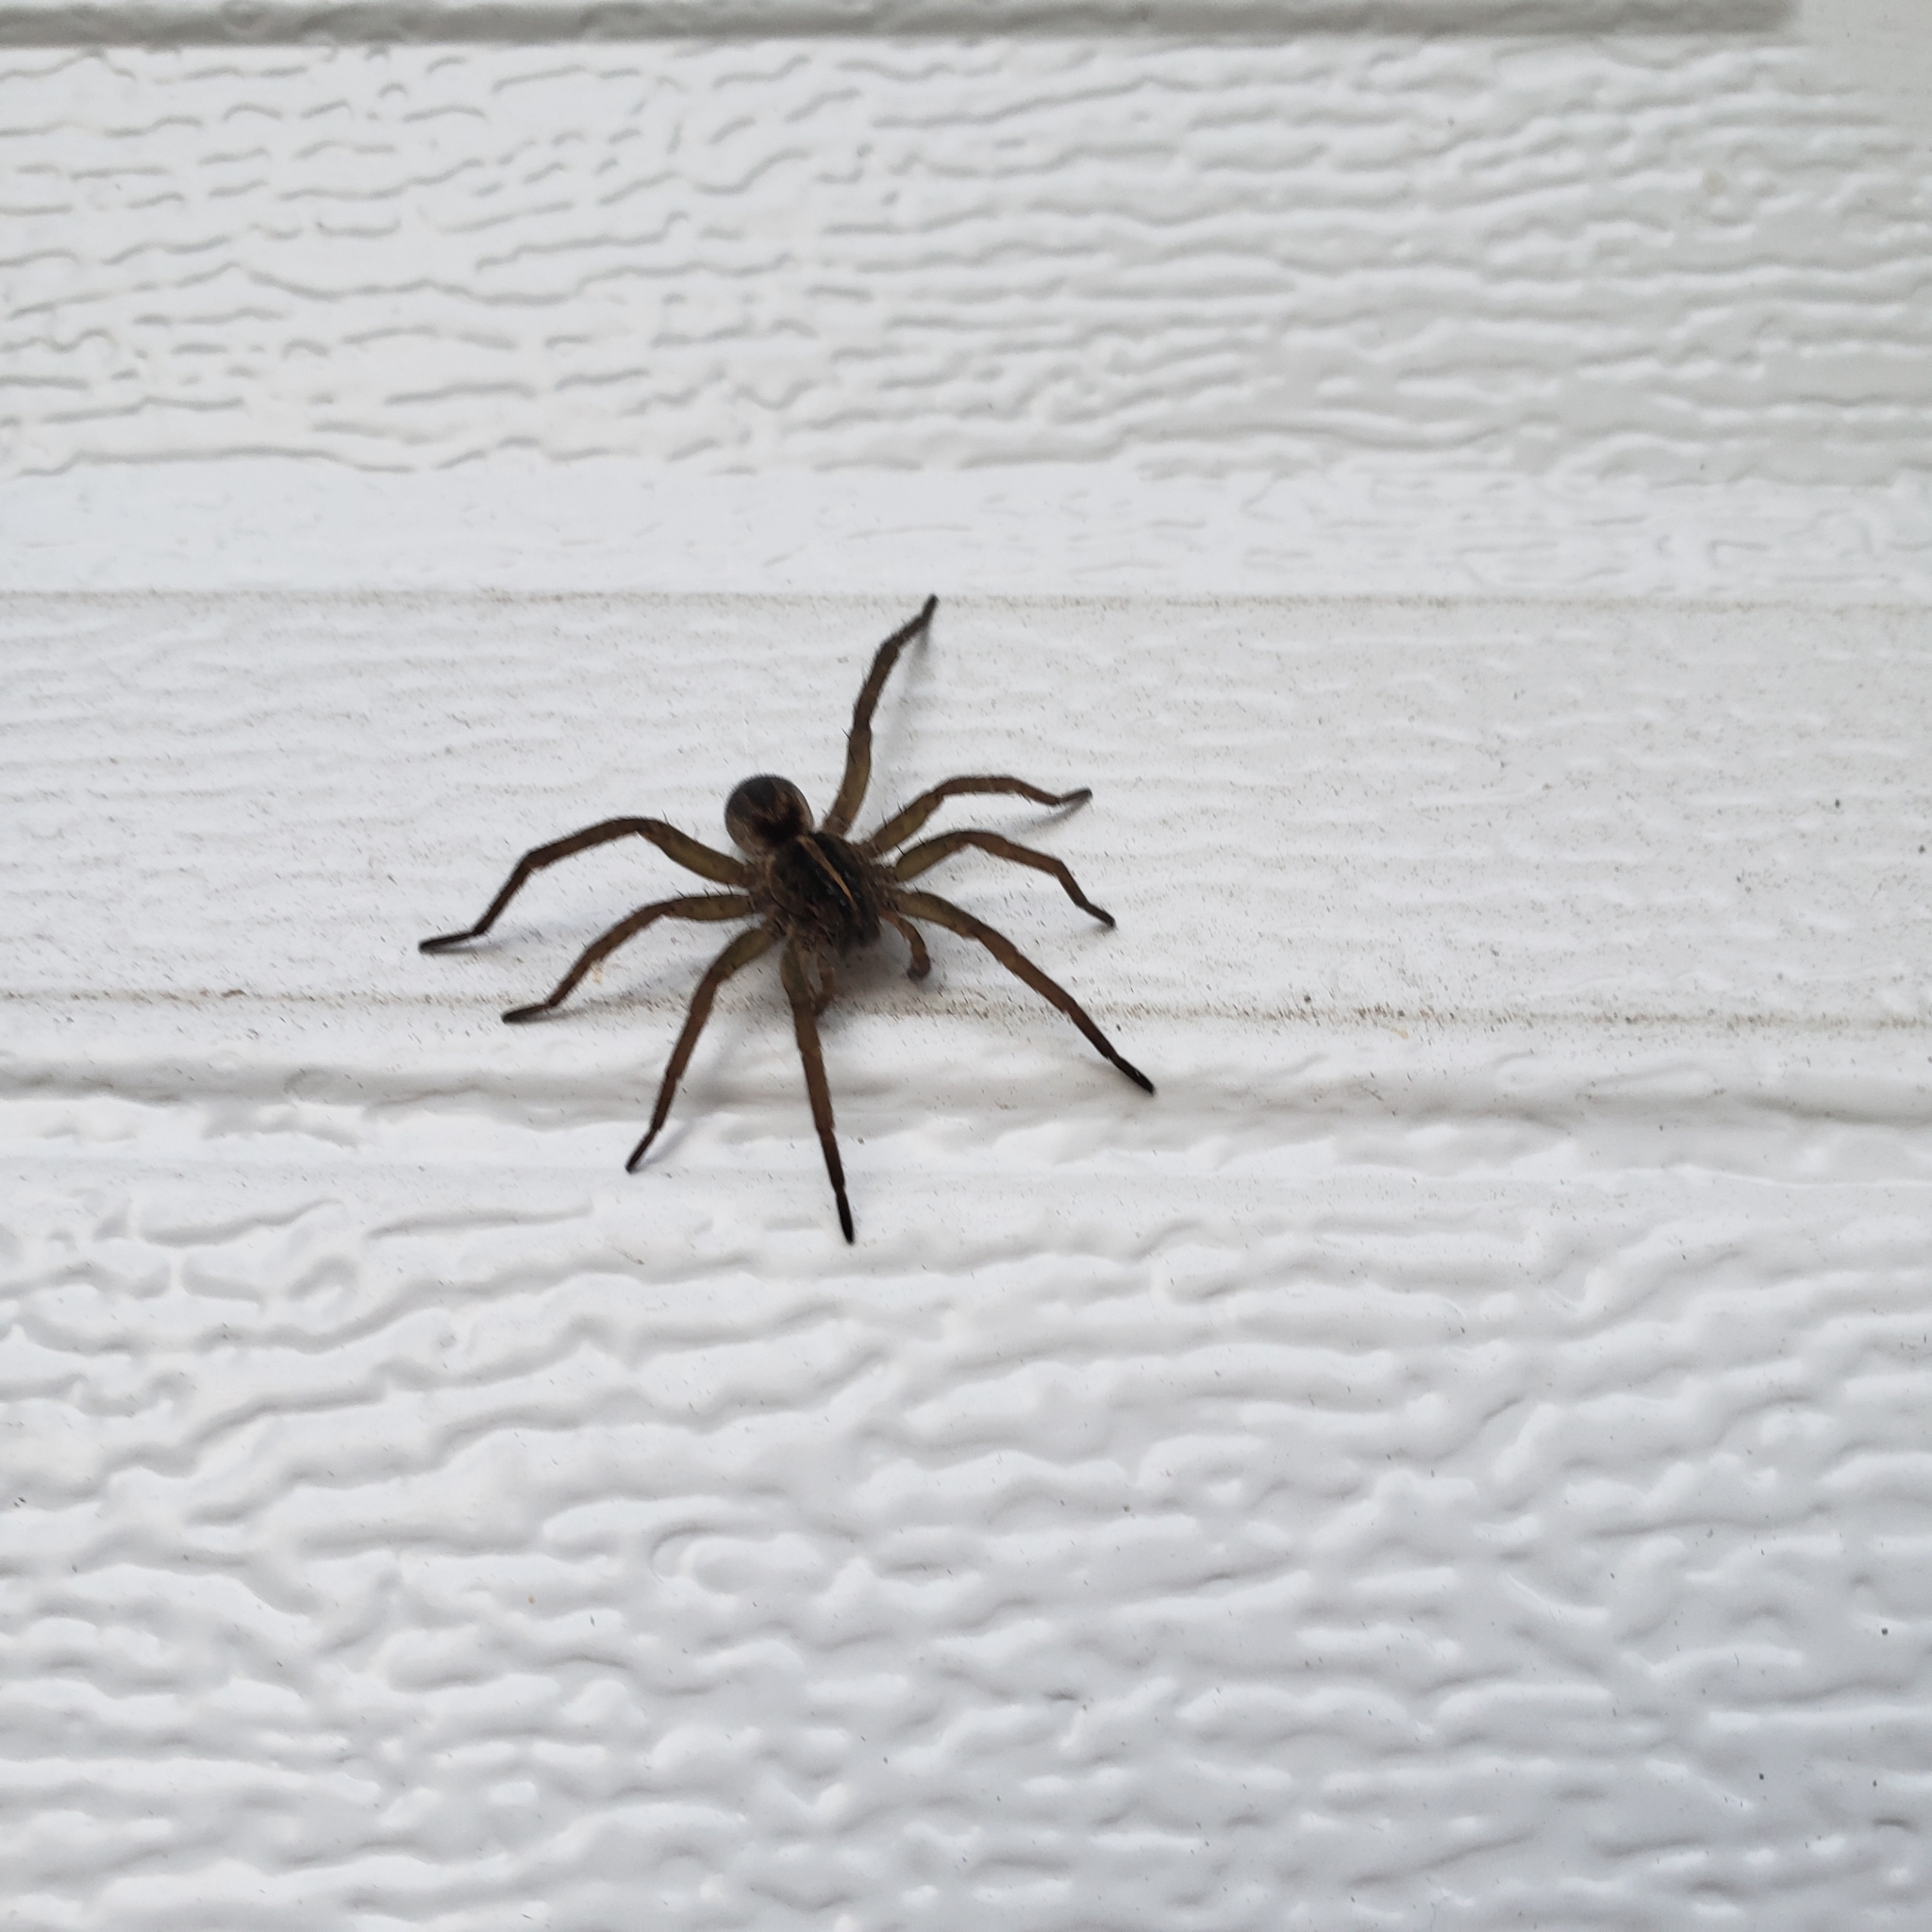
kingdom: Animalia
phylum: Arthropoda
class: Arachnida
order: Araneae
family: Lycosidae
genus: Tigrosa
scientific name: Tigrosa helluo
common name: Wetland giant wolf spider
